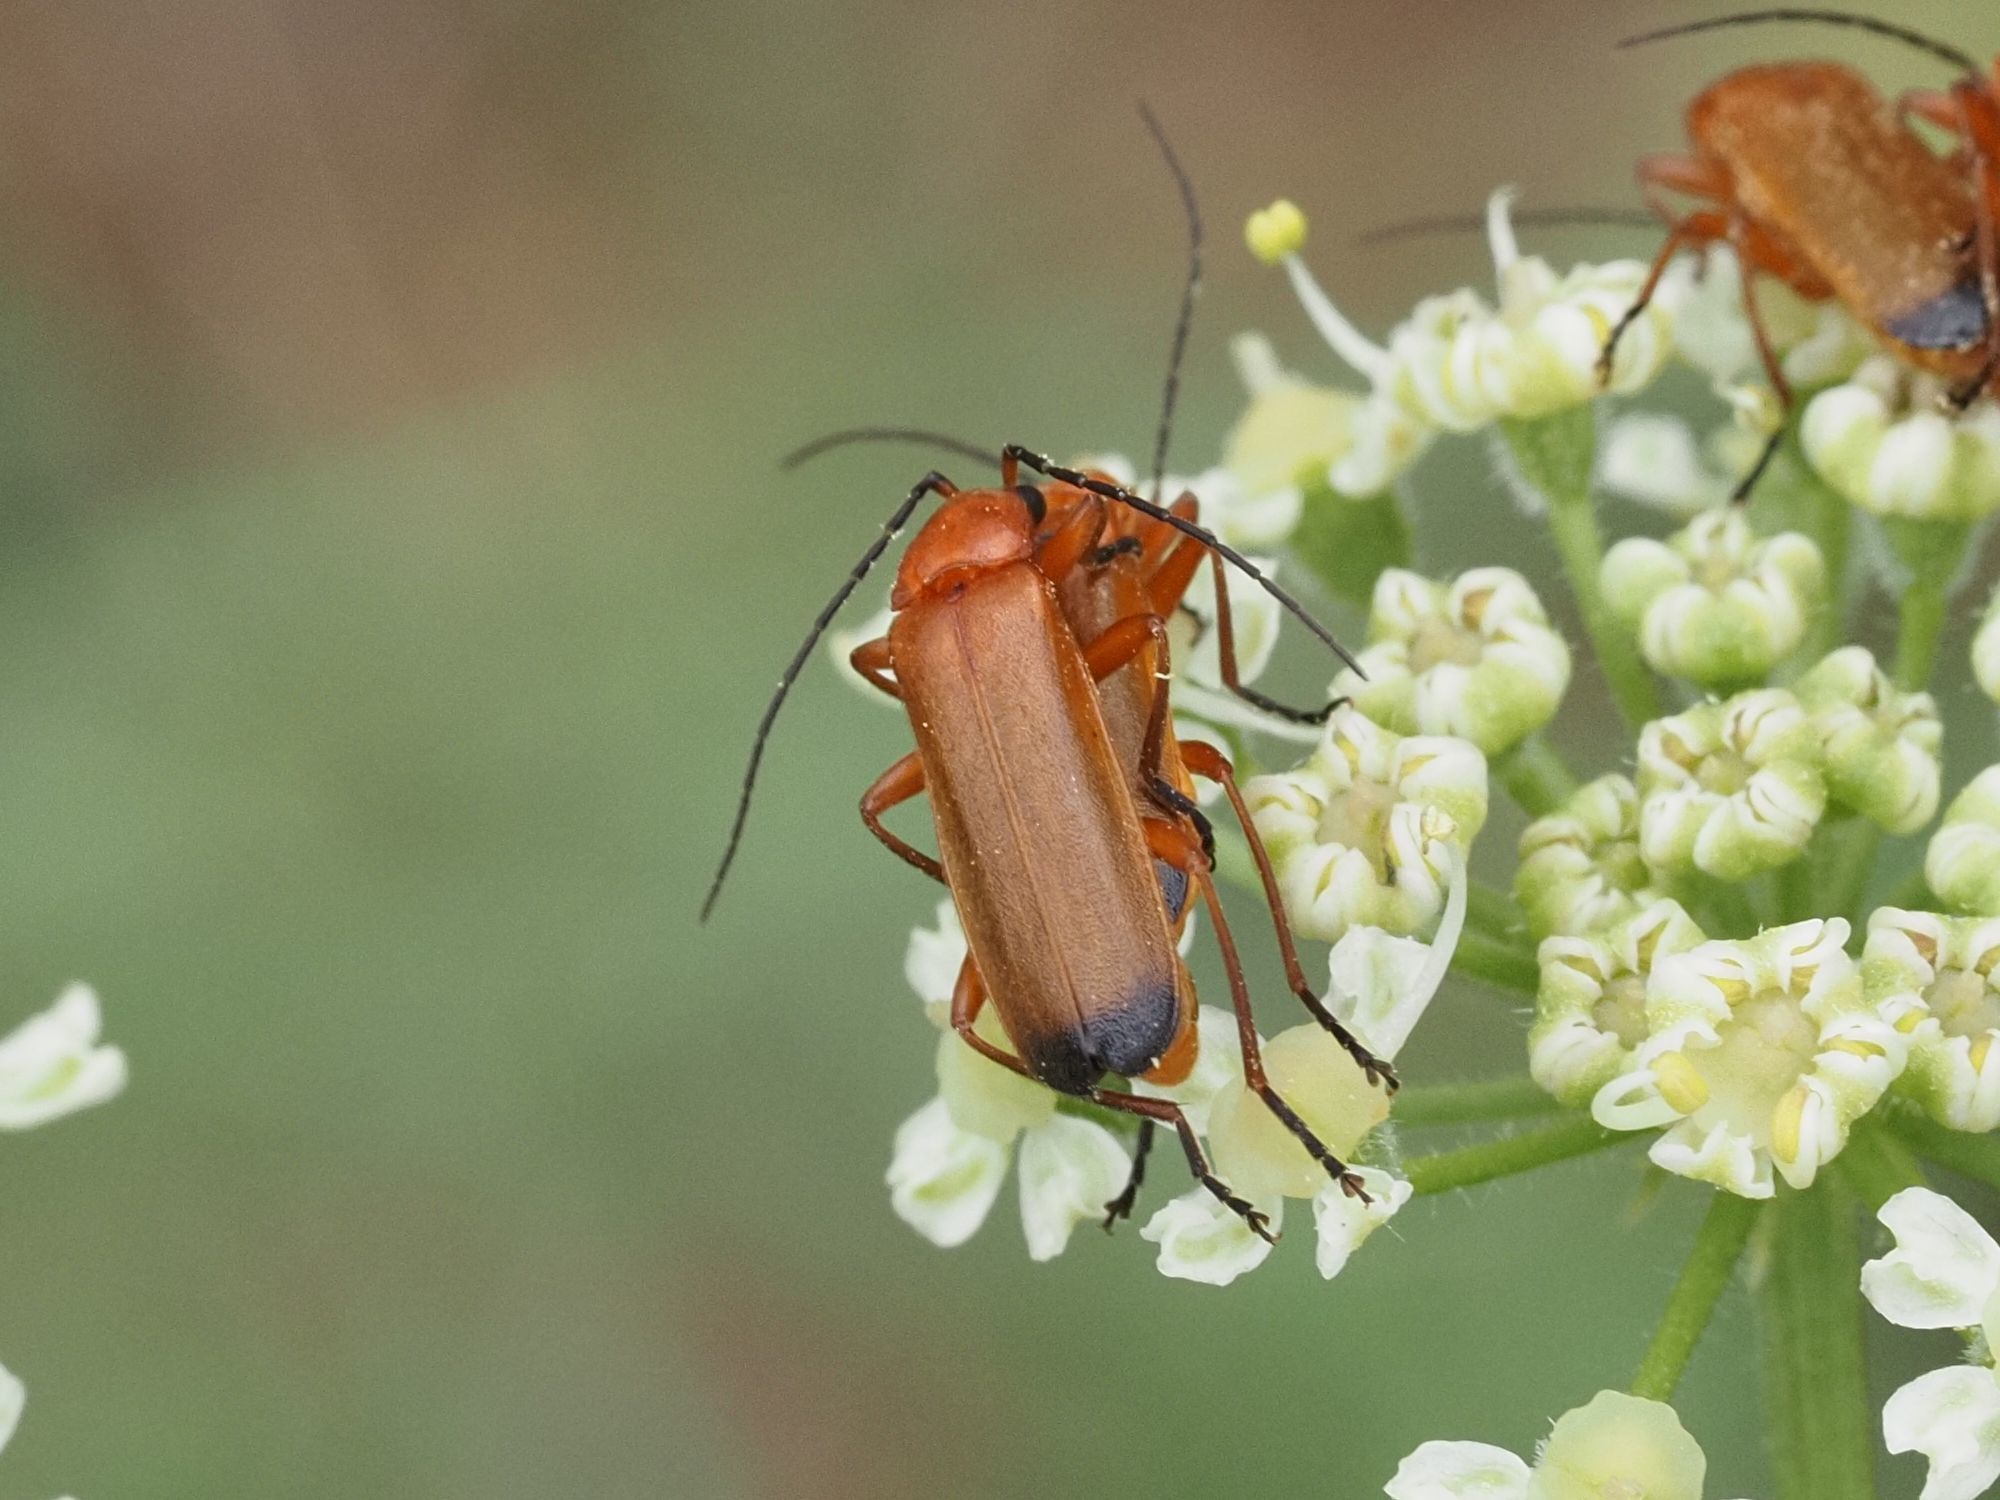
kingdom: Animalia
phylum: Arthropoda
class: Insecta
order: Coleoptera
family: Cantharidae
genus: Rhagonycha
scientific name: Rhagonycha fulva
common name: Common red soldier beetle
